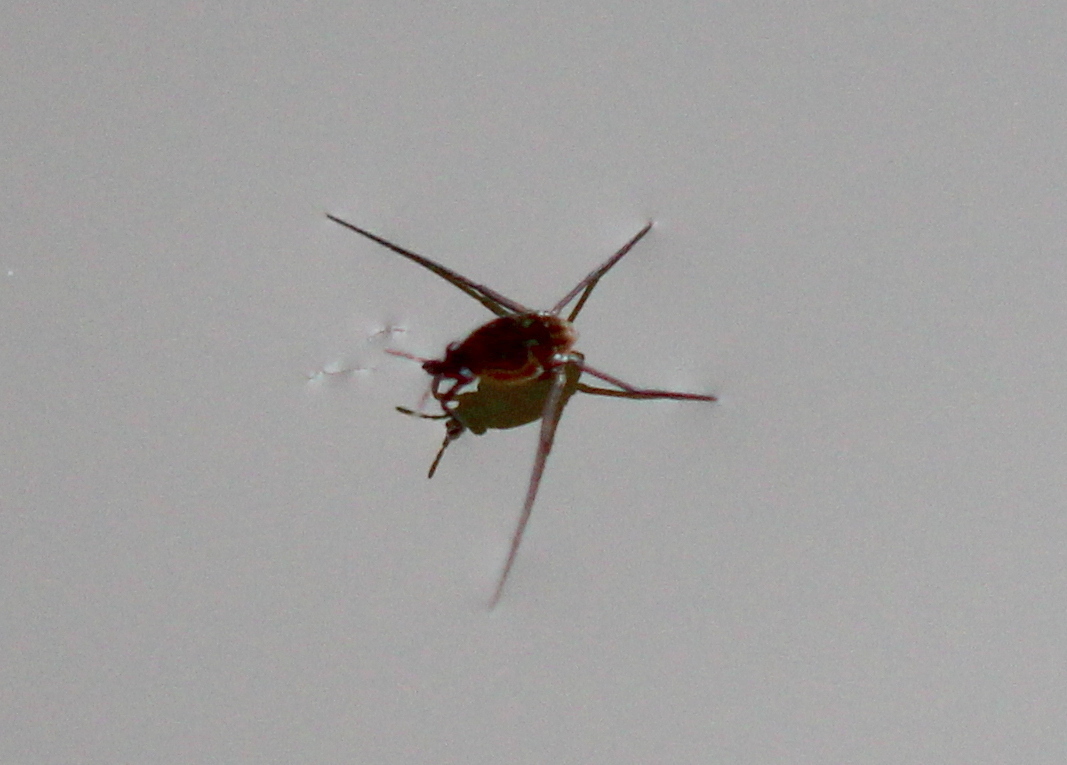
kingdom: Animalia
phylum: Arthropoda
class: Insecta
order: Hemiptera
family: Gerridae
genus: Trepobates
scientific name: Trepobates
